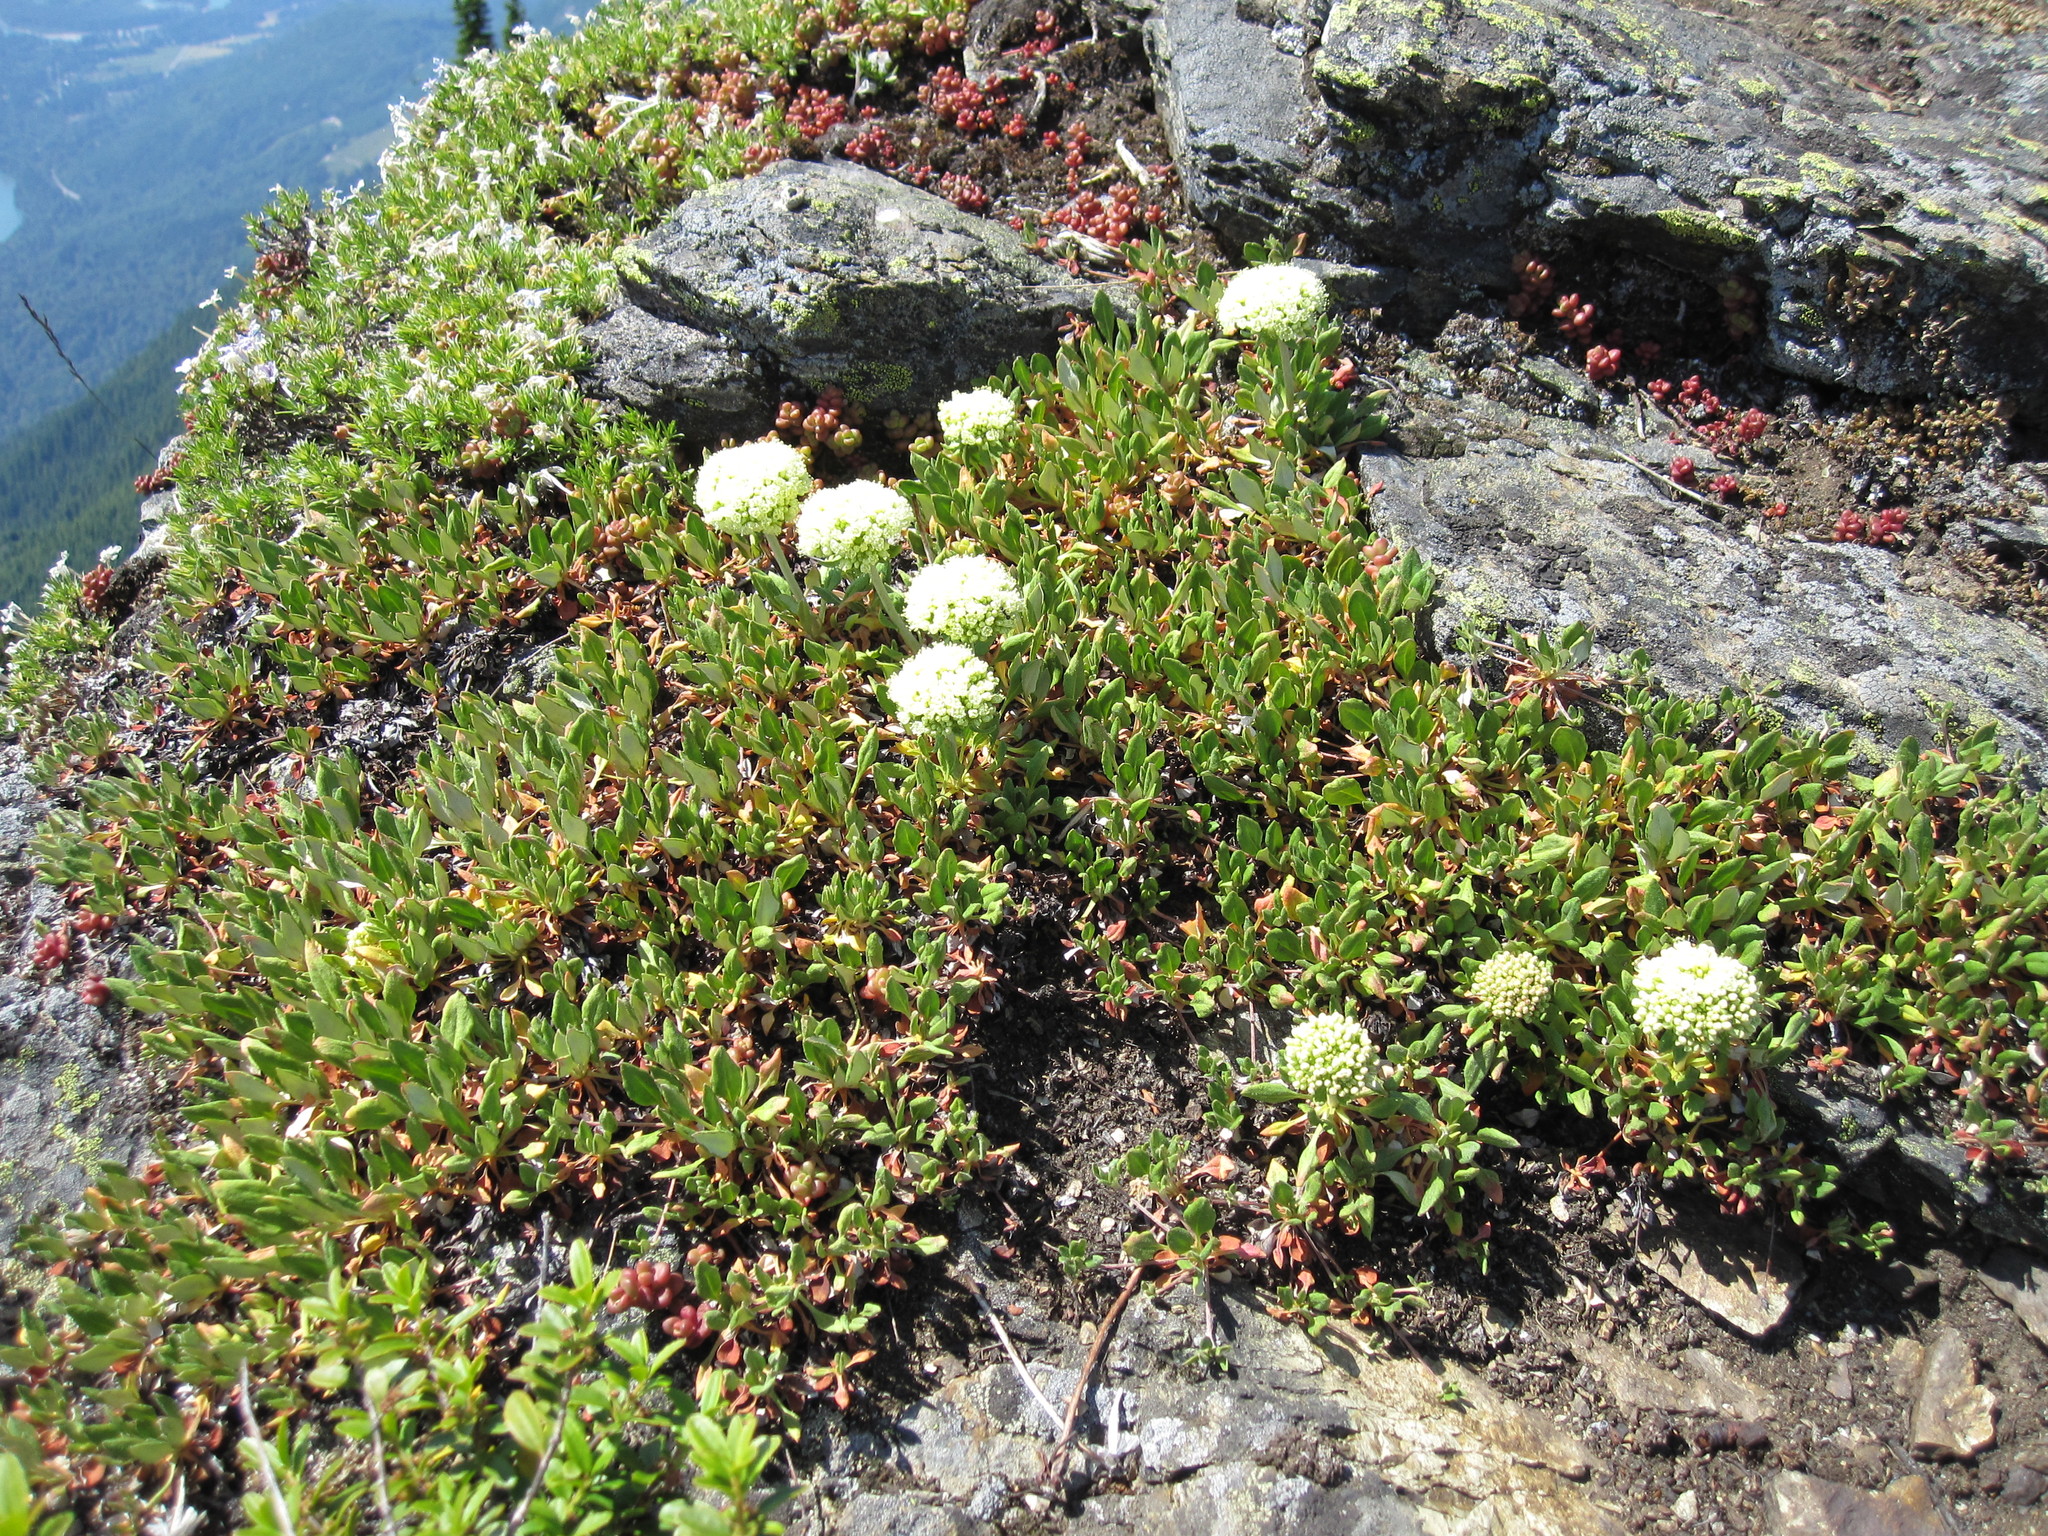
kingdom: Plantae
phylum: Tracheophyta
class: Magnoliopsida
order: Caryophyllales
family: Polygonaceae
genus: Eriogonum
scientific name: Eriogonum umbellatum
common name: Sulfur-buckwheat
